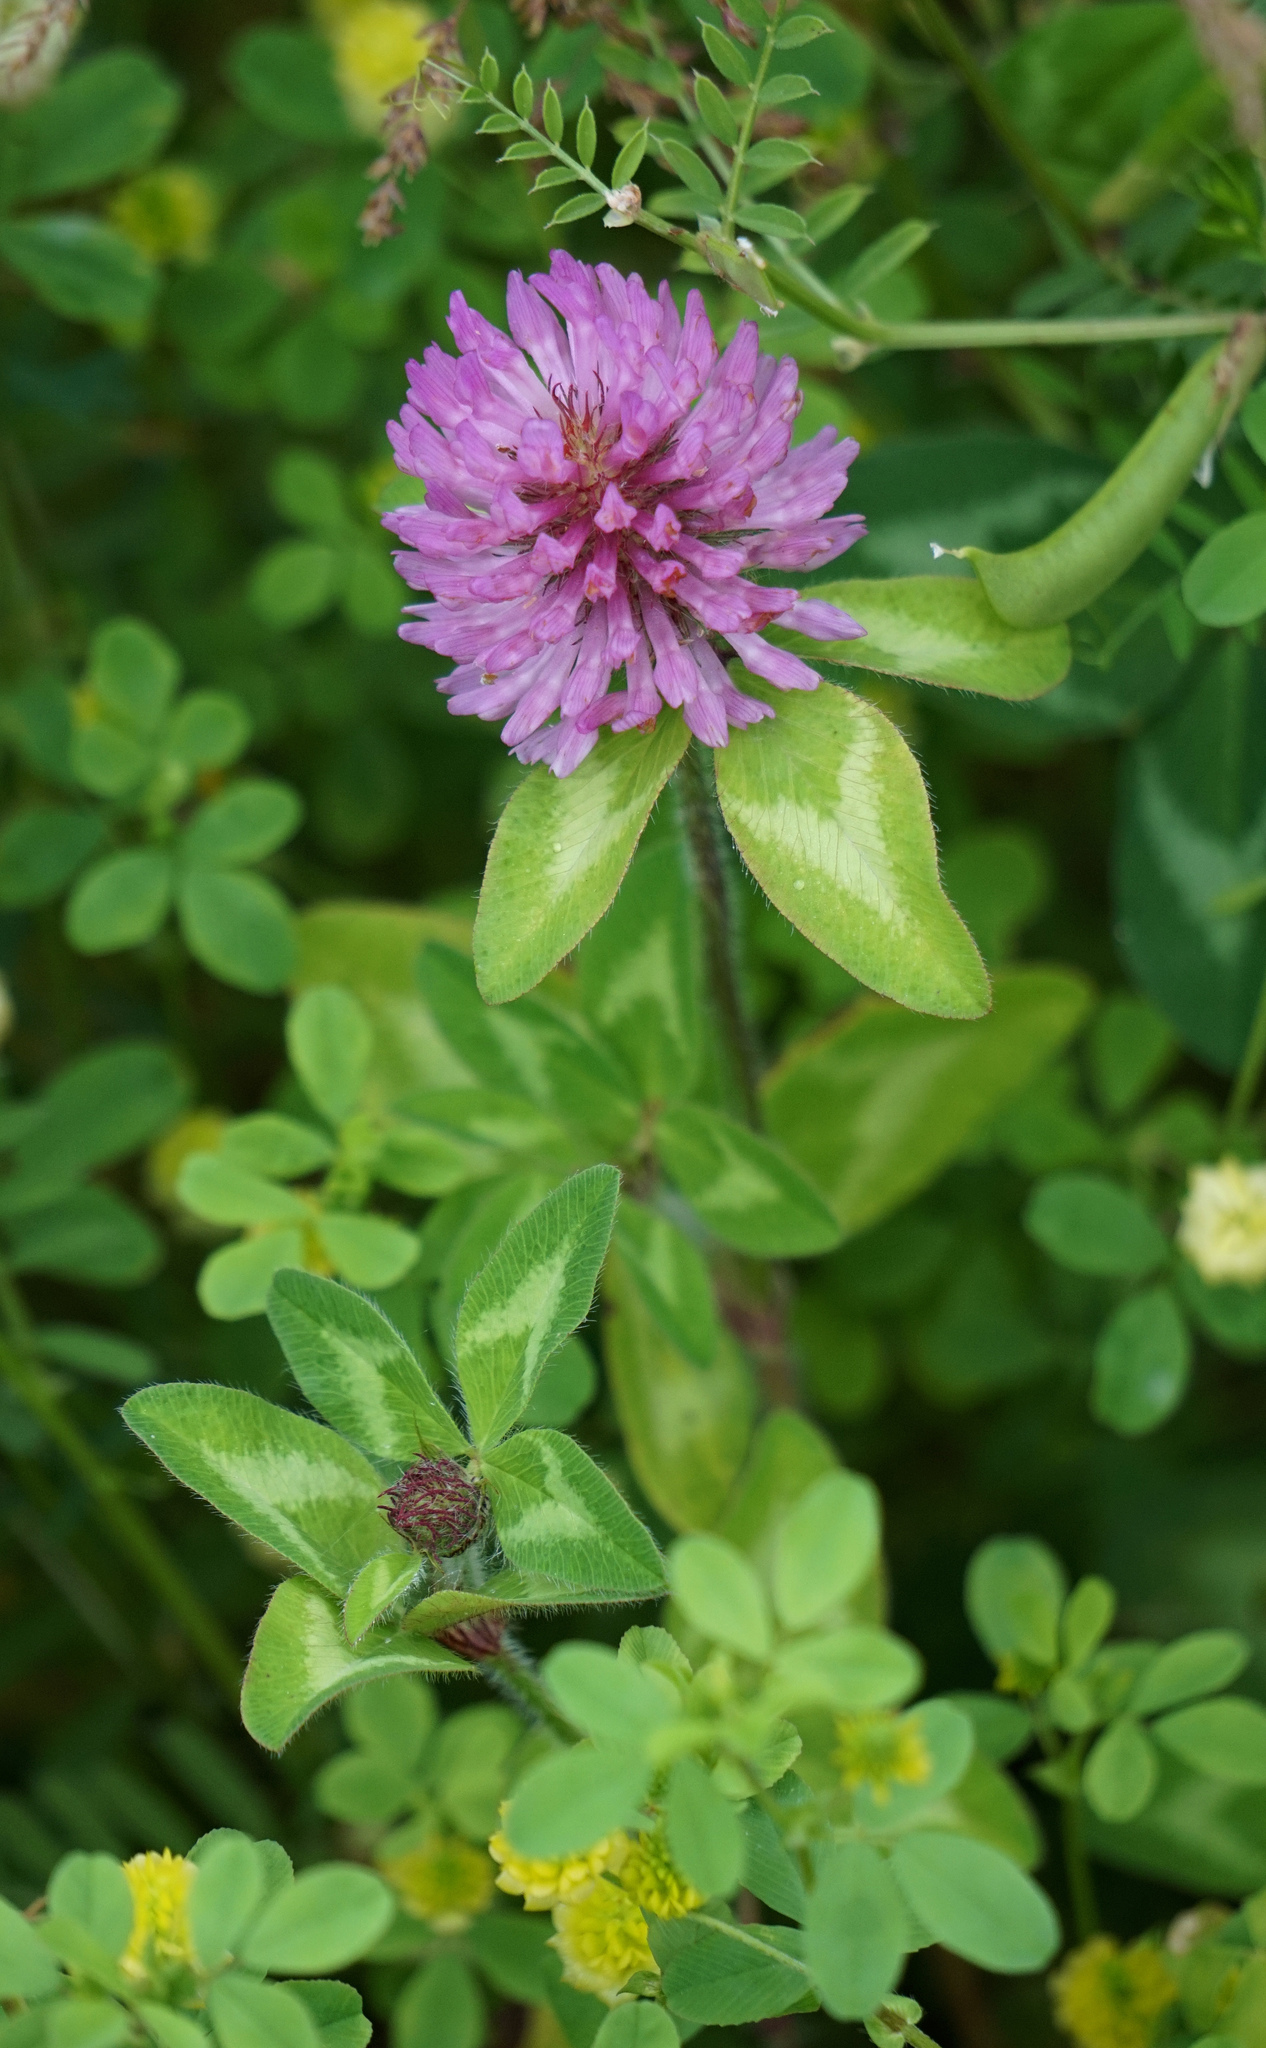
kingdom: Plantae
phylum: Tracheophyta
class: Magnoliopsida
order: Fabales
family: Fabaceae
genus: Trifolium
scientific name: Trifolium pratense
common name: Red clover
